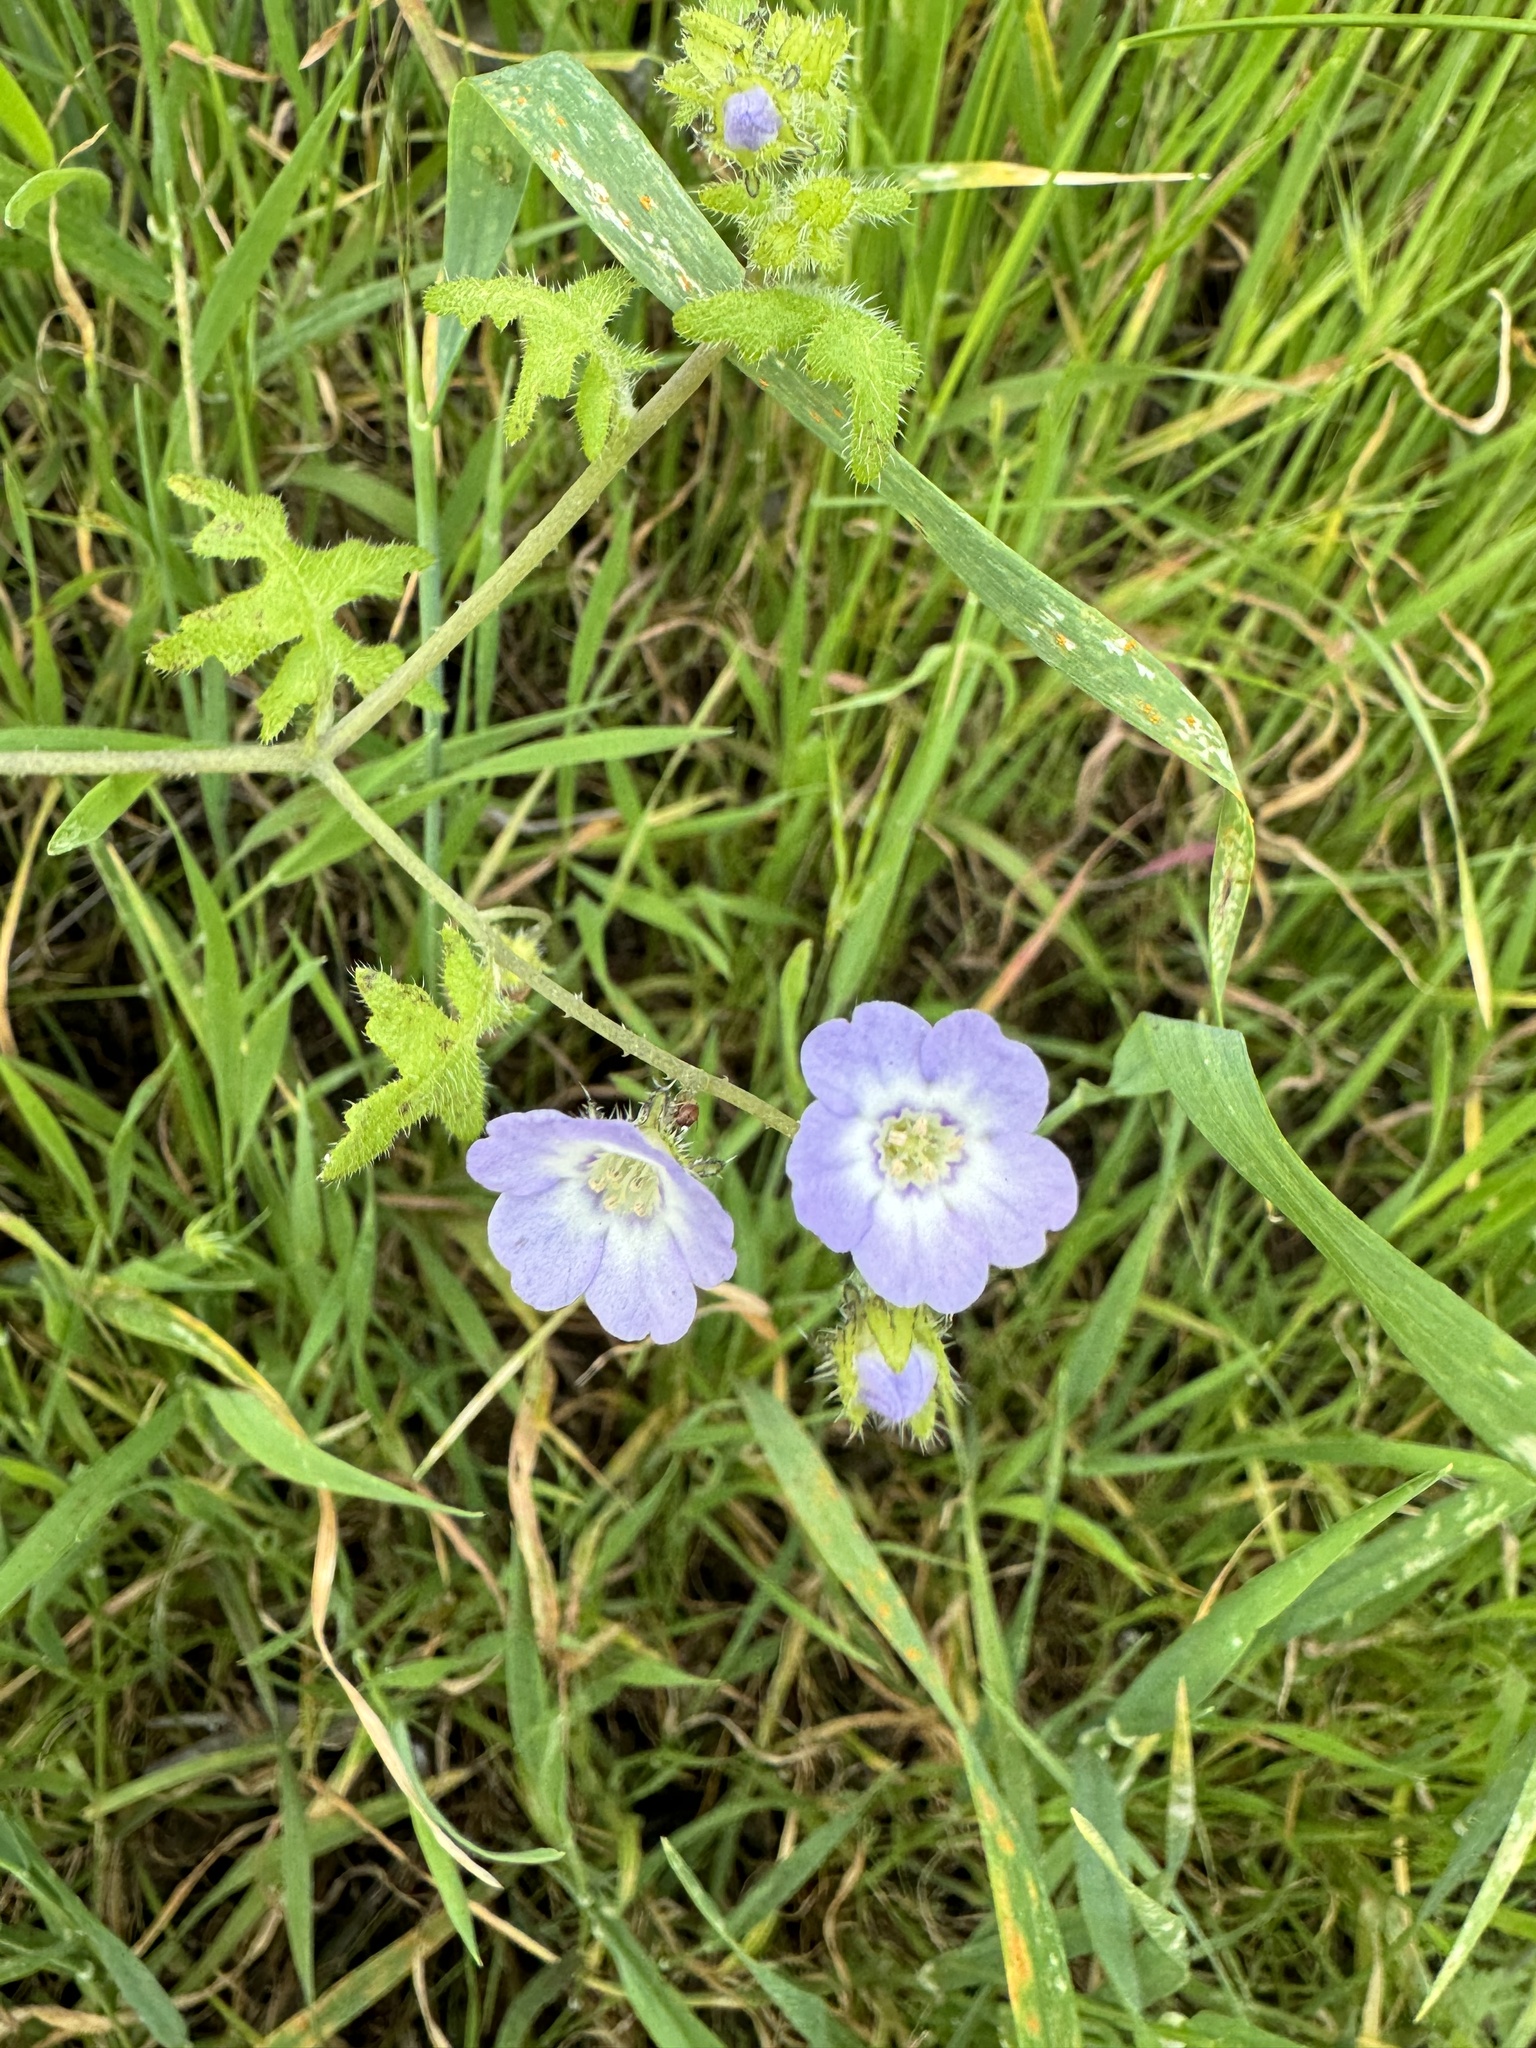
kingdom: Plantae
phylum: Tracheophyta
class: Magnoliopsida
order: Boraginales
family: Hydrophyllaceae
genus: Pholistoma
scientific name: Pholistoma racemosum
